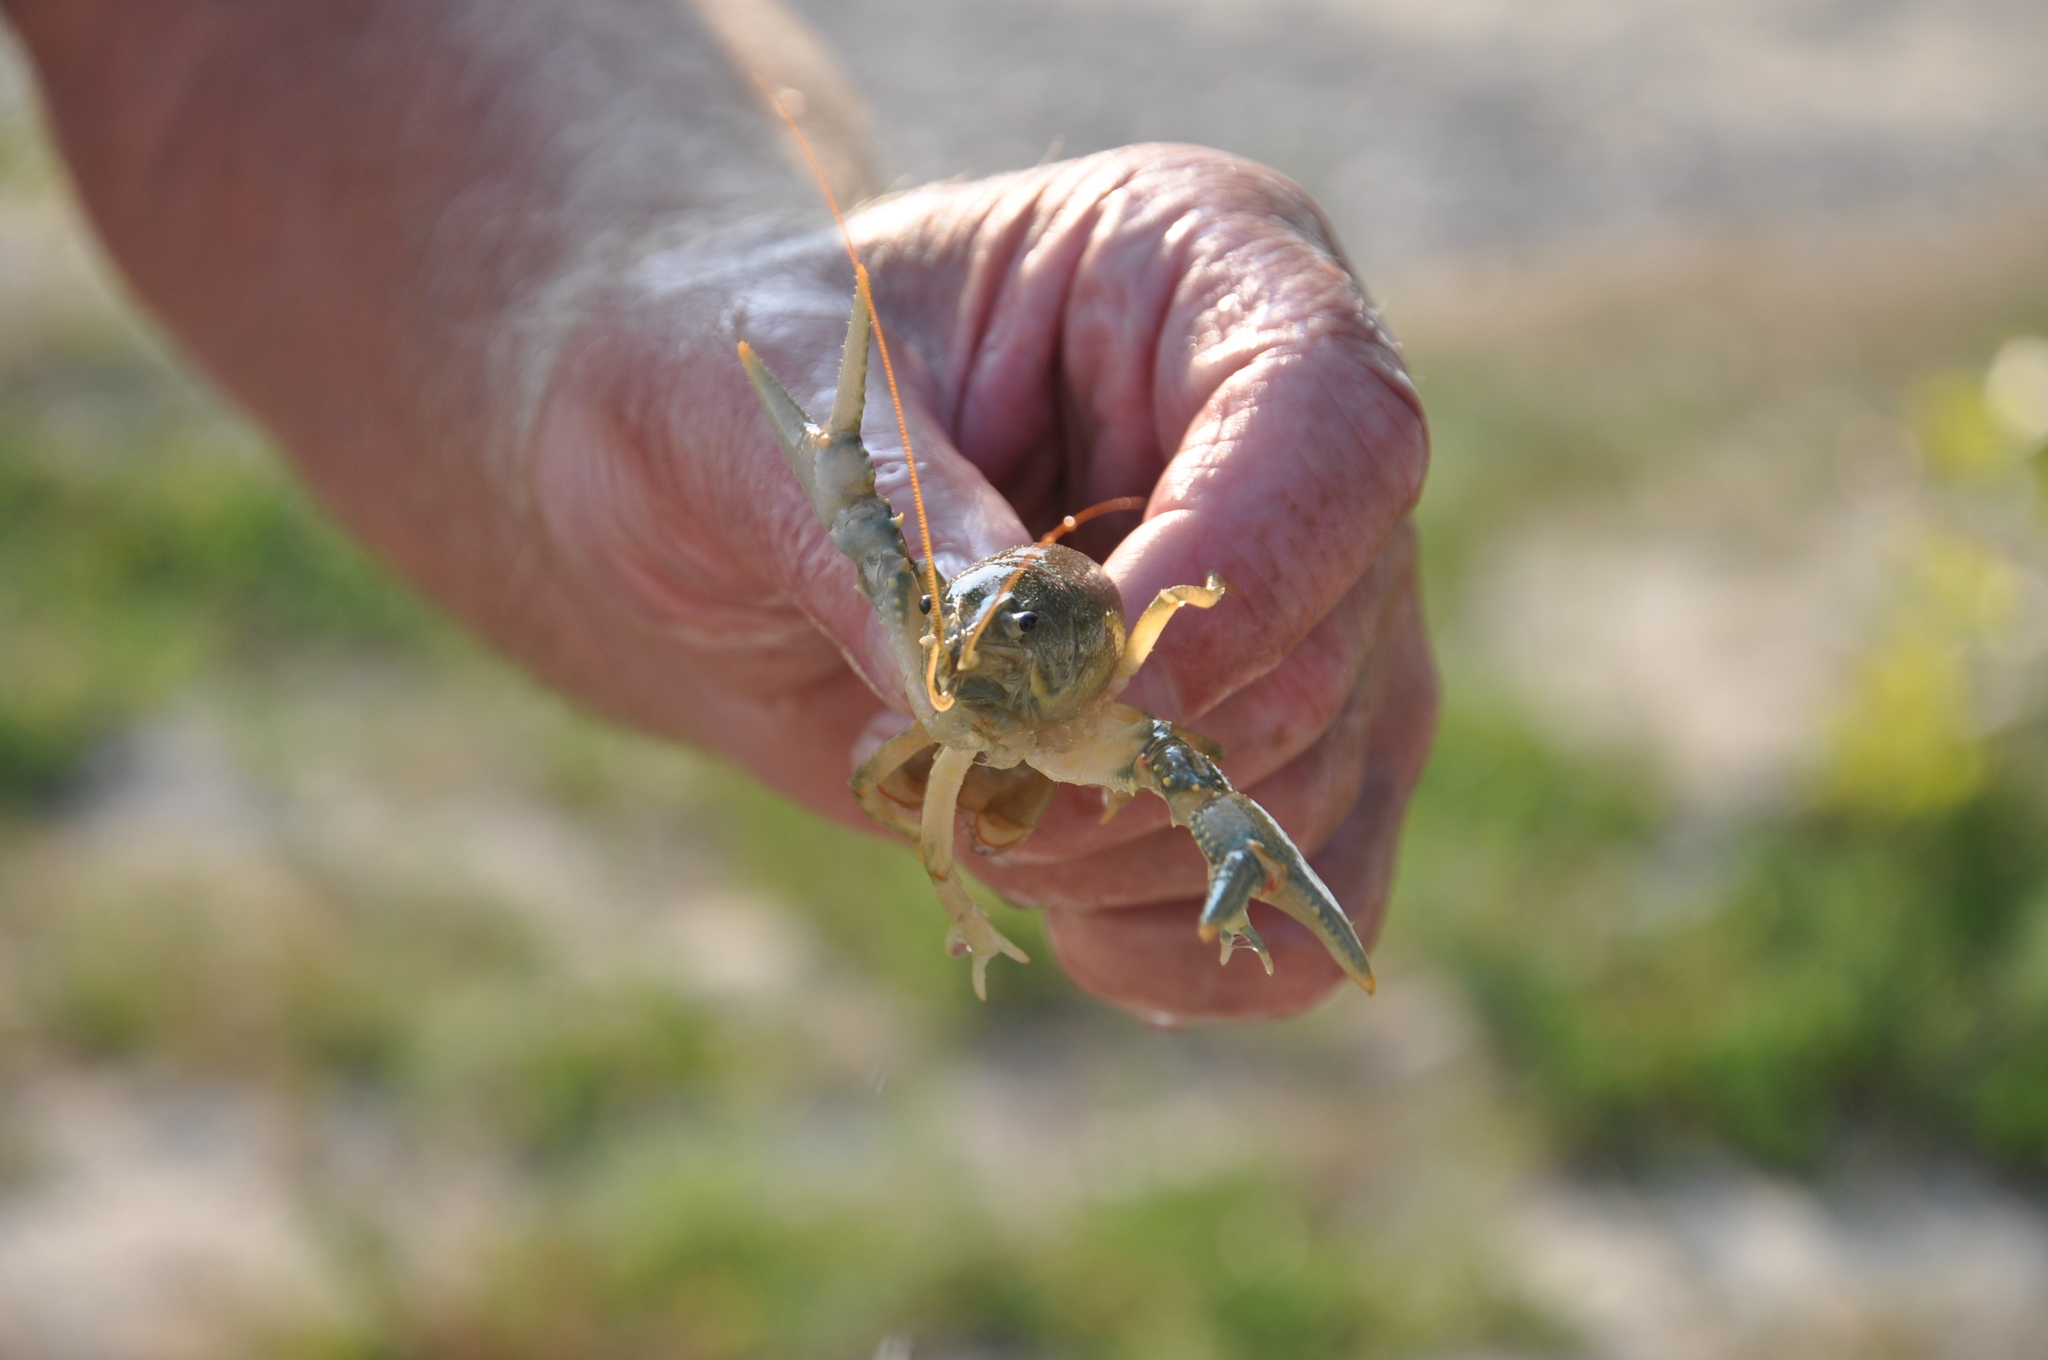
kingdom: Animalia
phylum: Arthropoda
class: Malacostraca
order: Decapoda
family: Cambaridae
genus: Faxonius
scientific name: Faxonius virilis
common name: Virile crayfish
